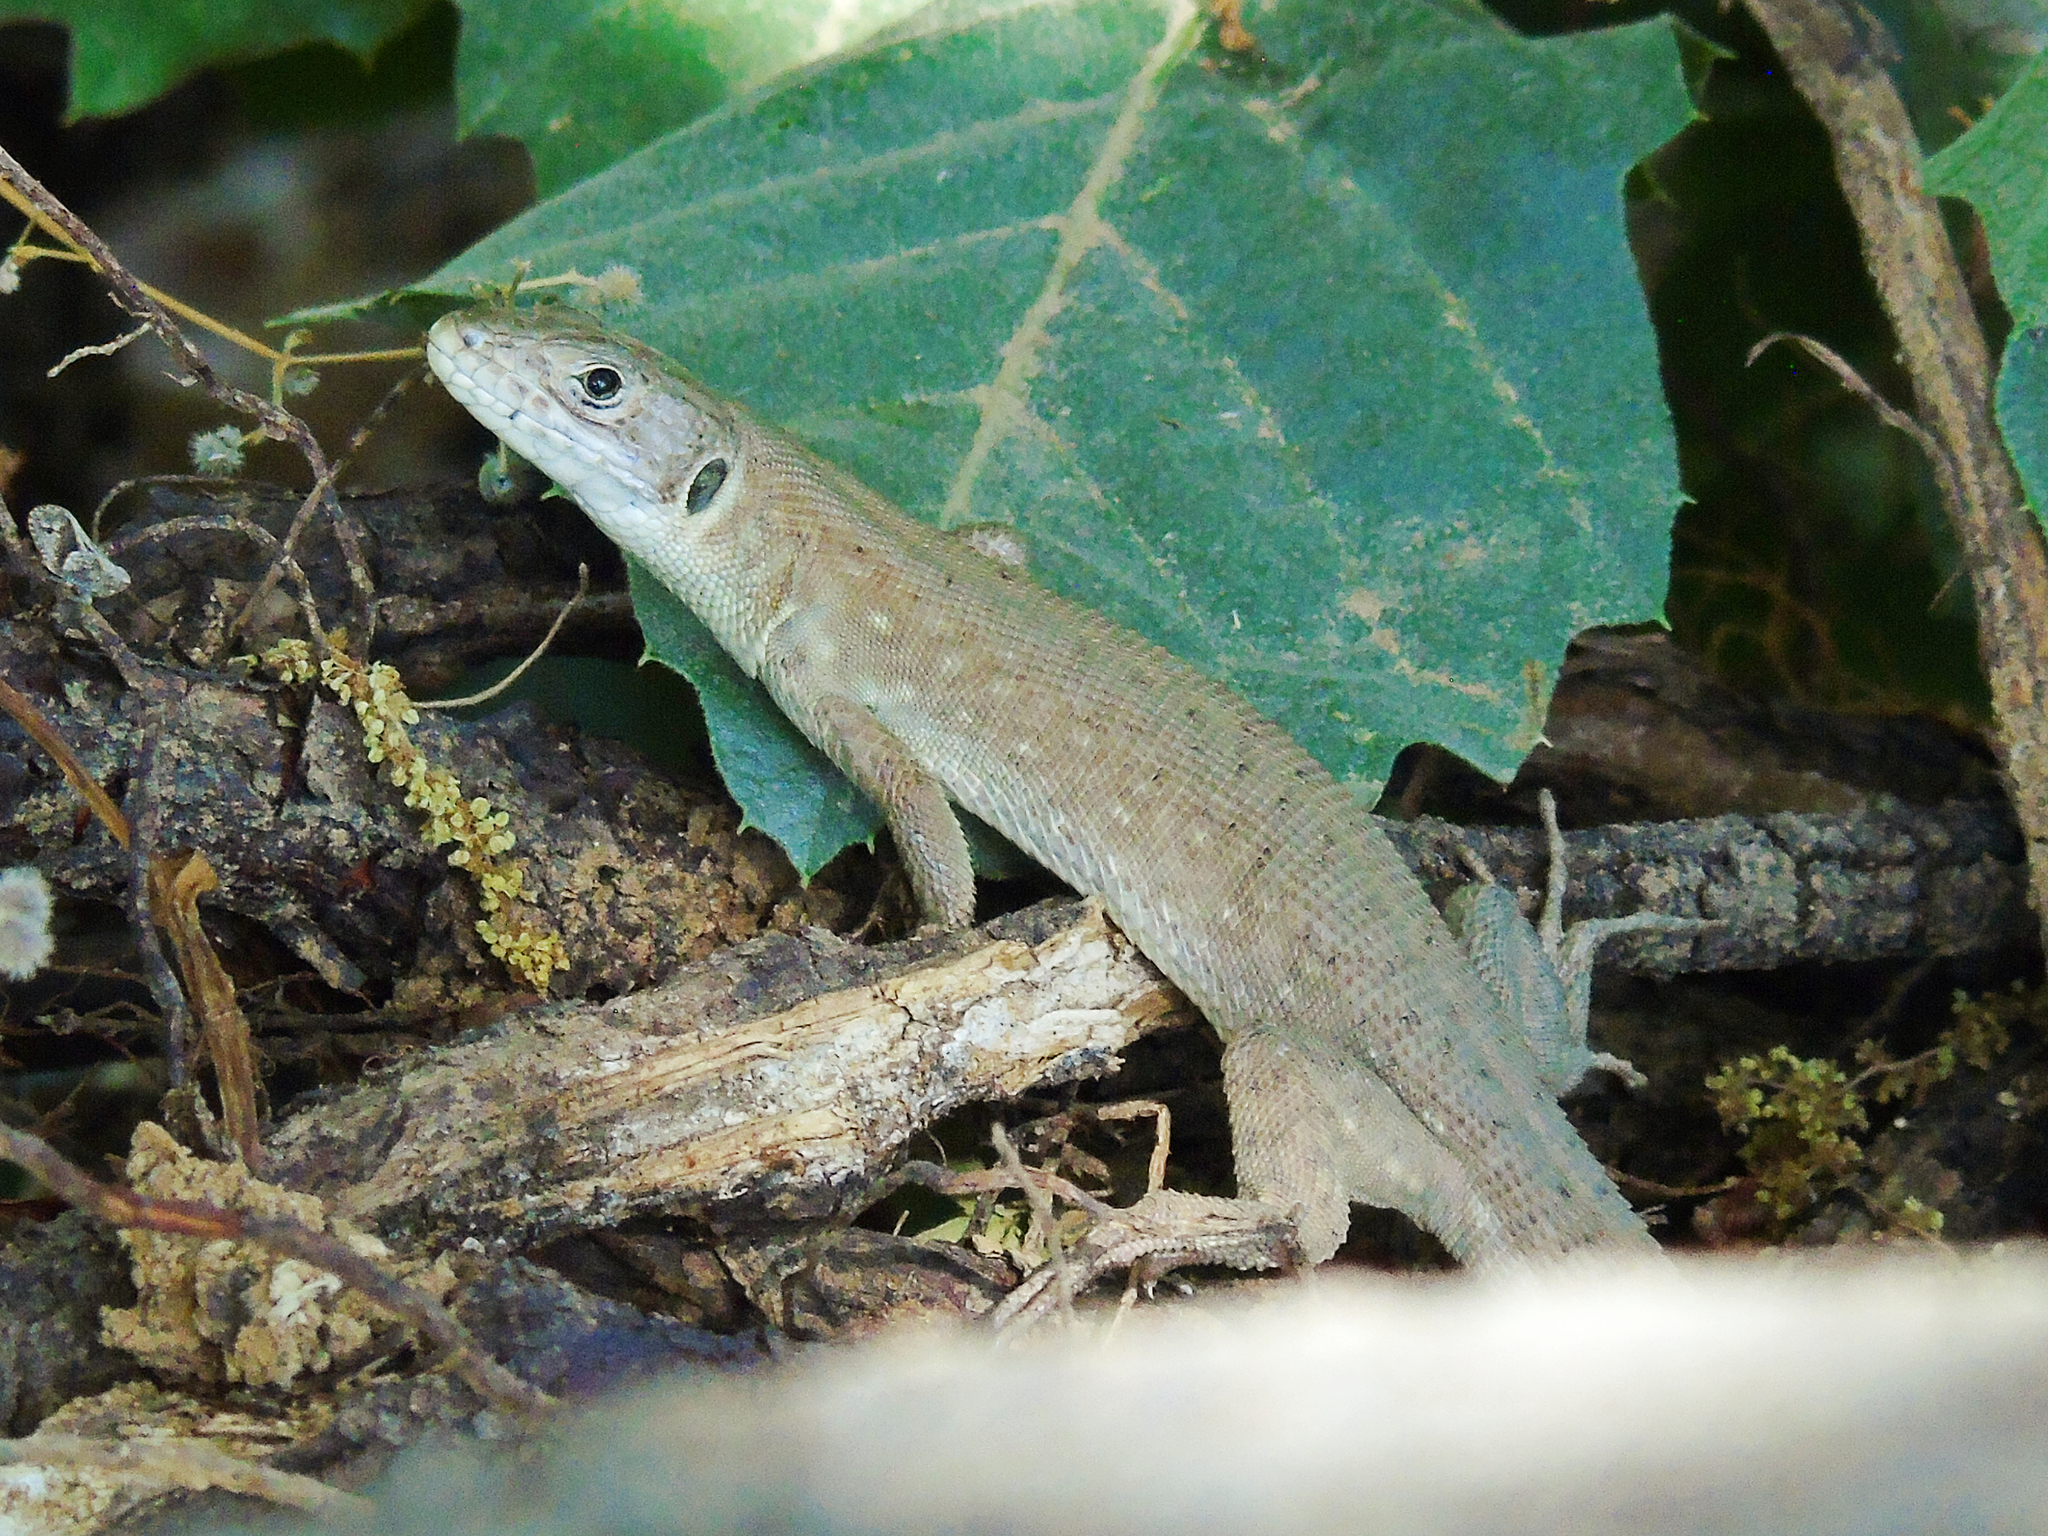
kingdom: Animalia
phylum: Chordata
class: Squamata
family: Lacertidae
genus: Timon
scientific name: Timon kurdistanicus
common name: Kurdistan lizard
